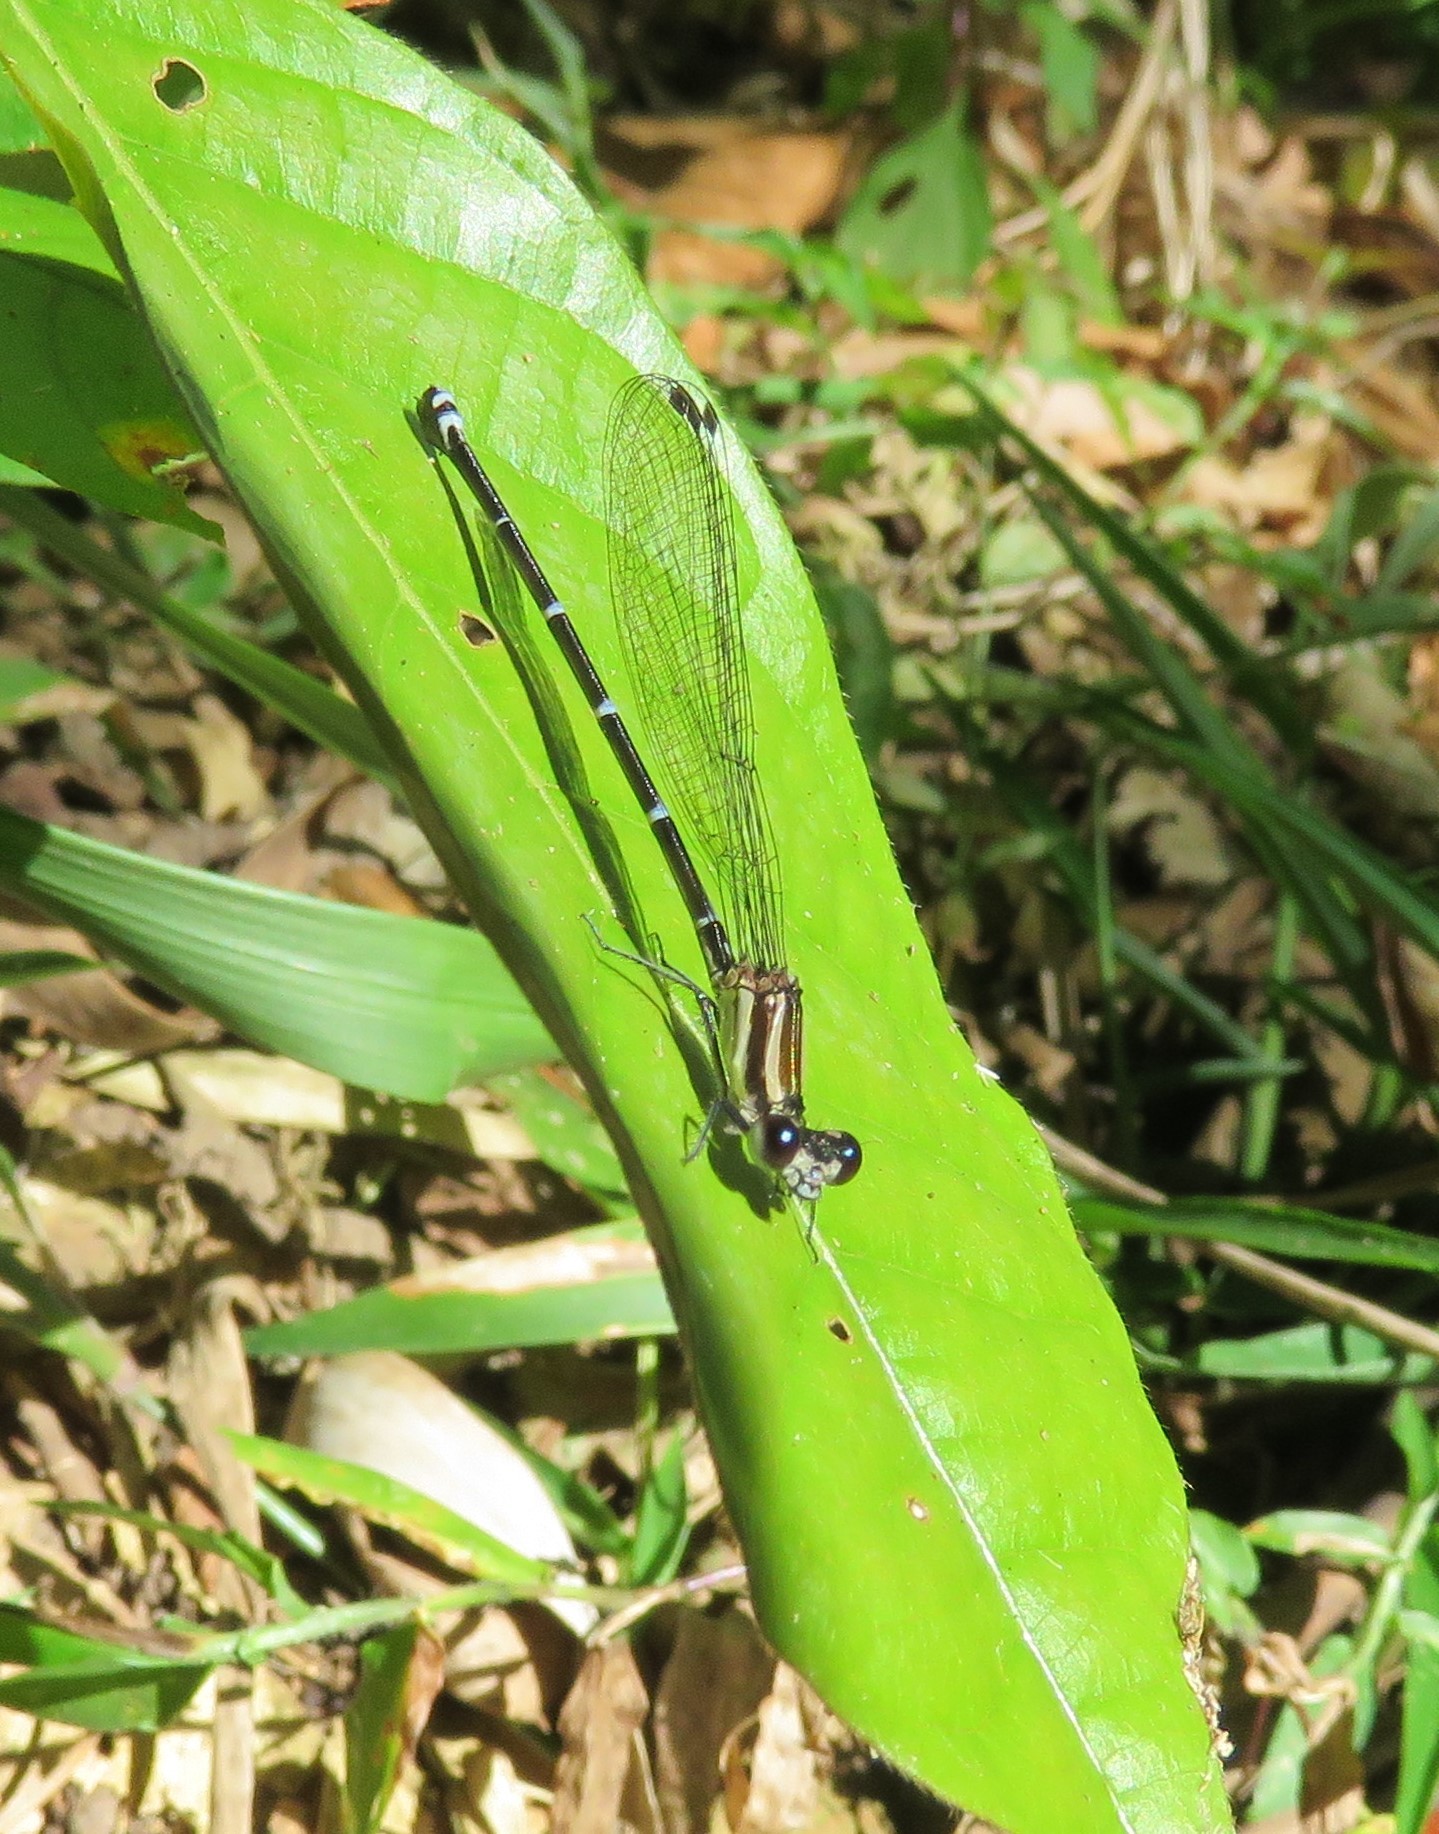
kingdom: Animalia
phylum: Arthropoda
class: Insecta
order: Odonata
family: Coenagrionidae
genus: Argia
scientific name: Argia oculata
